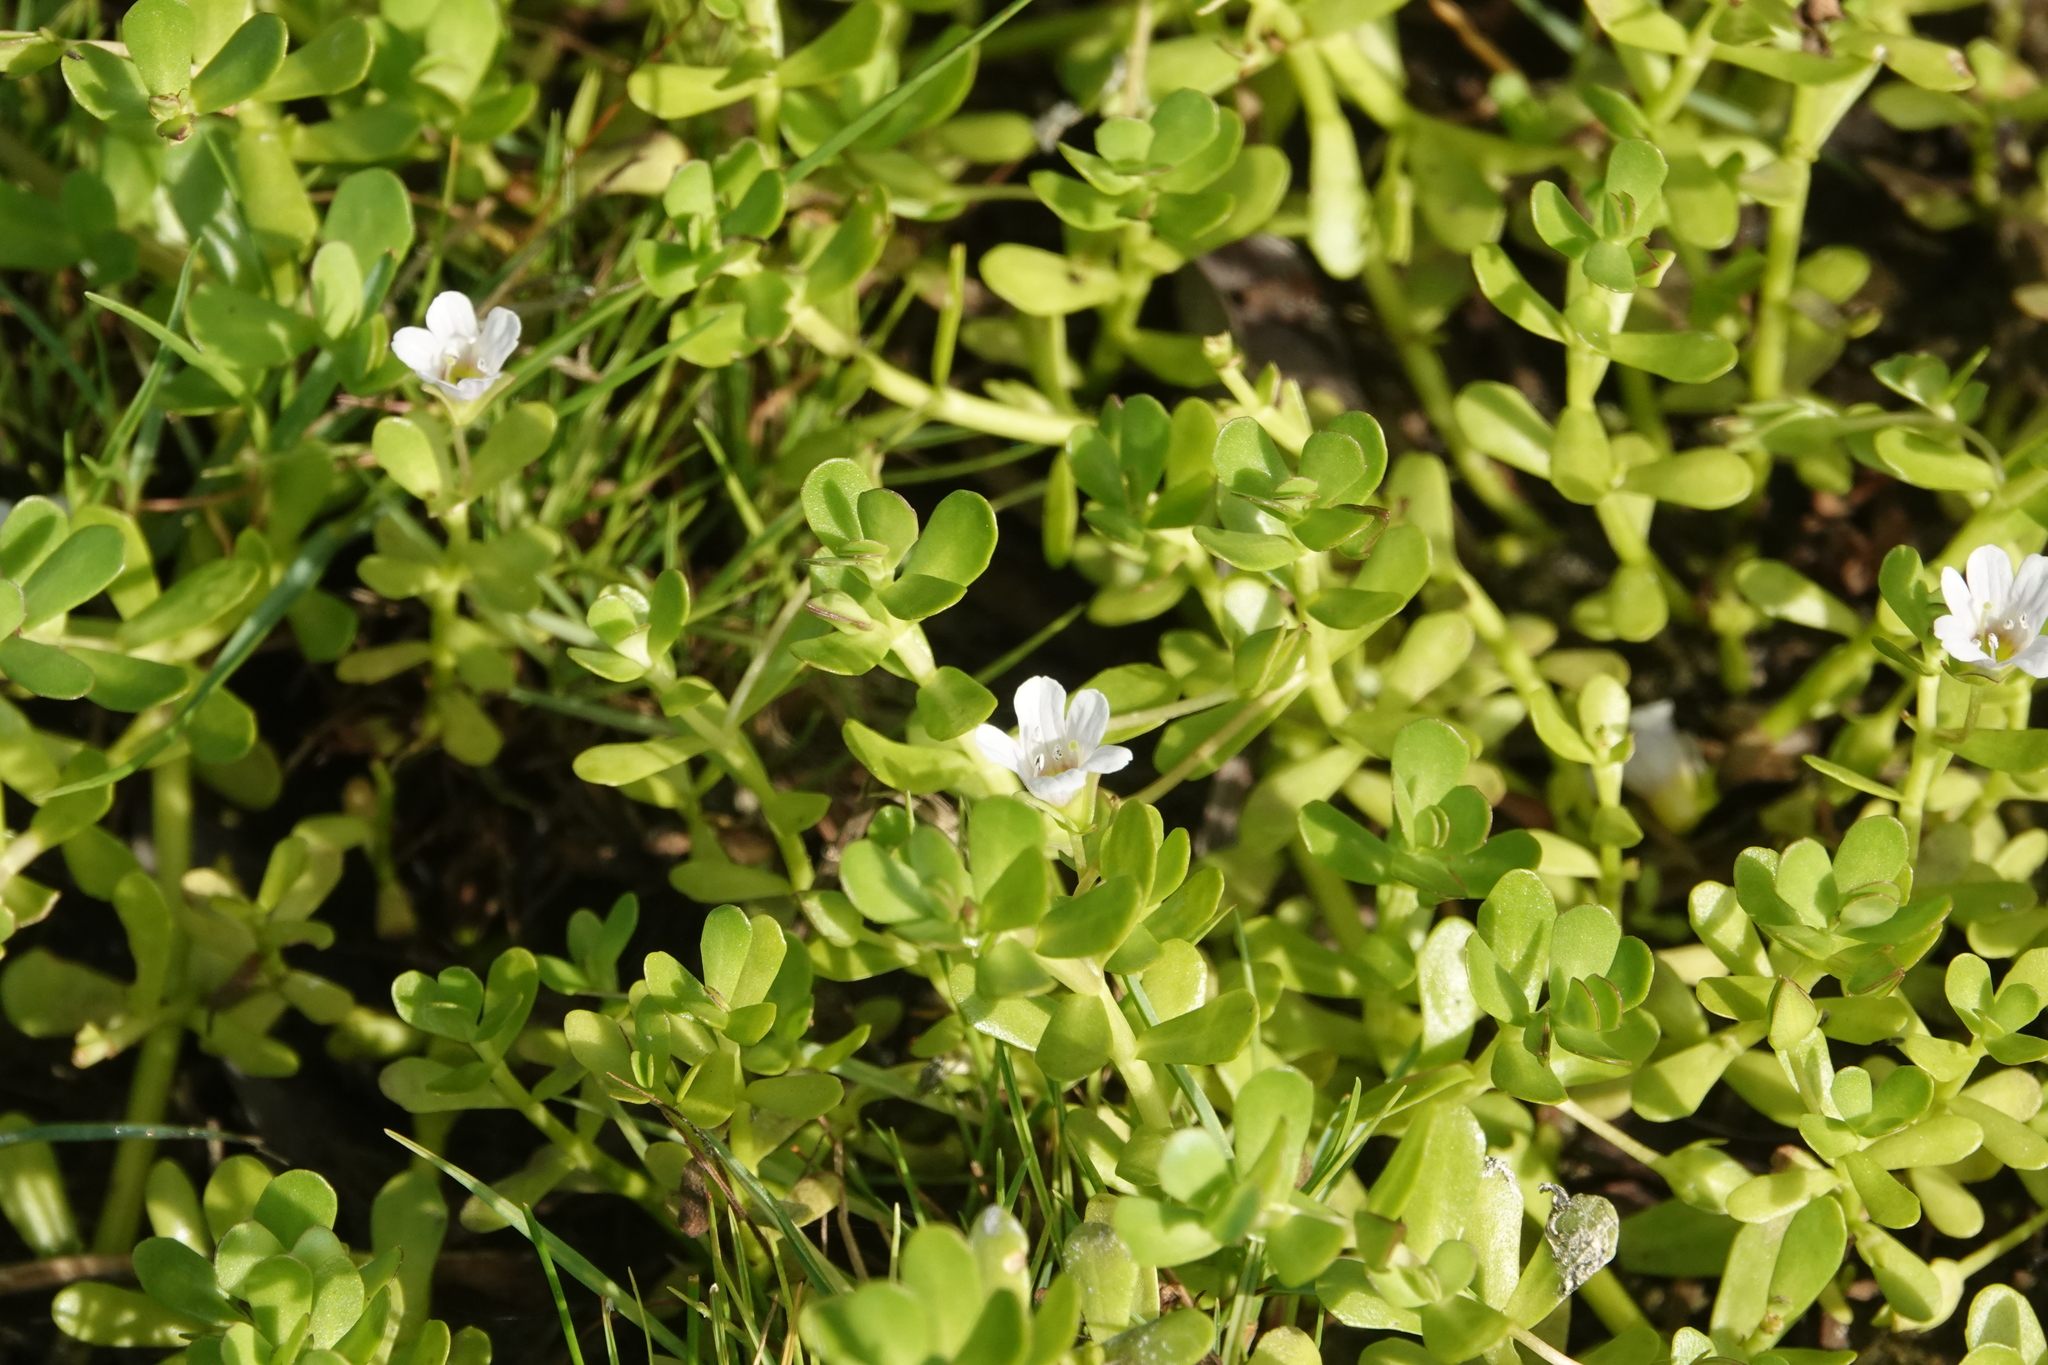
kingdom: Plantae
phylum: Tracheophyta
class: Magnoliopsida
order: Lamiales
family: Plantaginaceae
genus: Bacopa
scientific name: Bacopa monnieri
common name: Indian-pennywort
